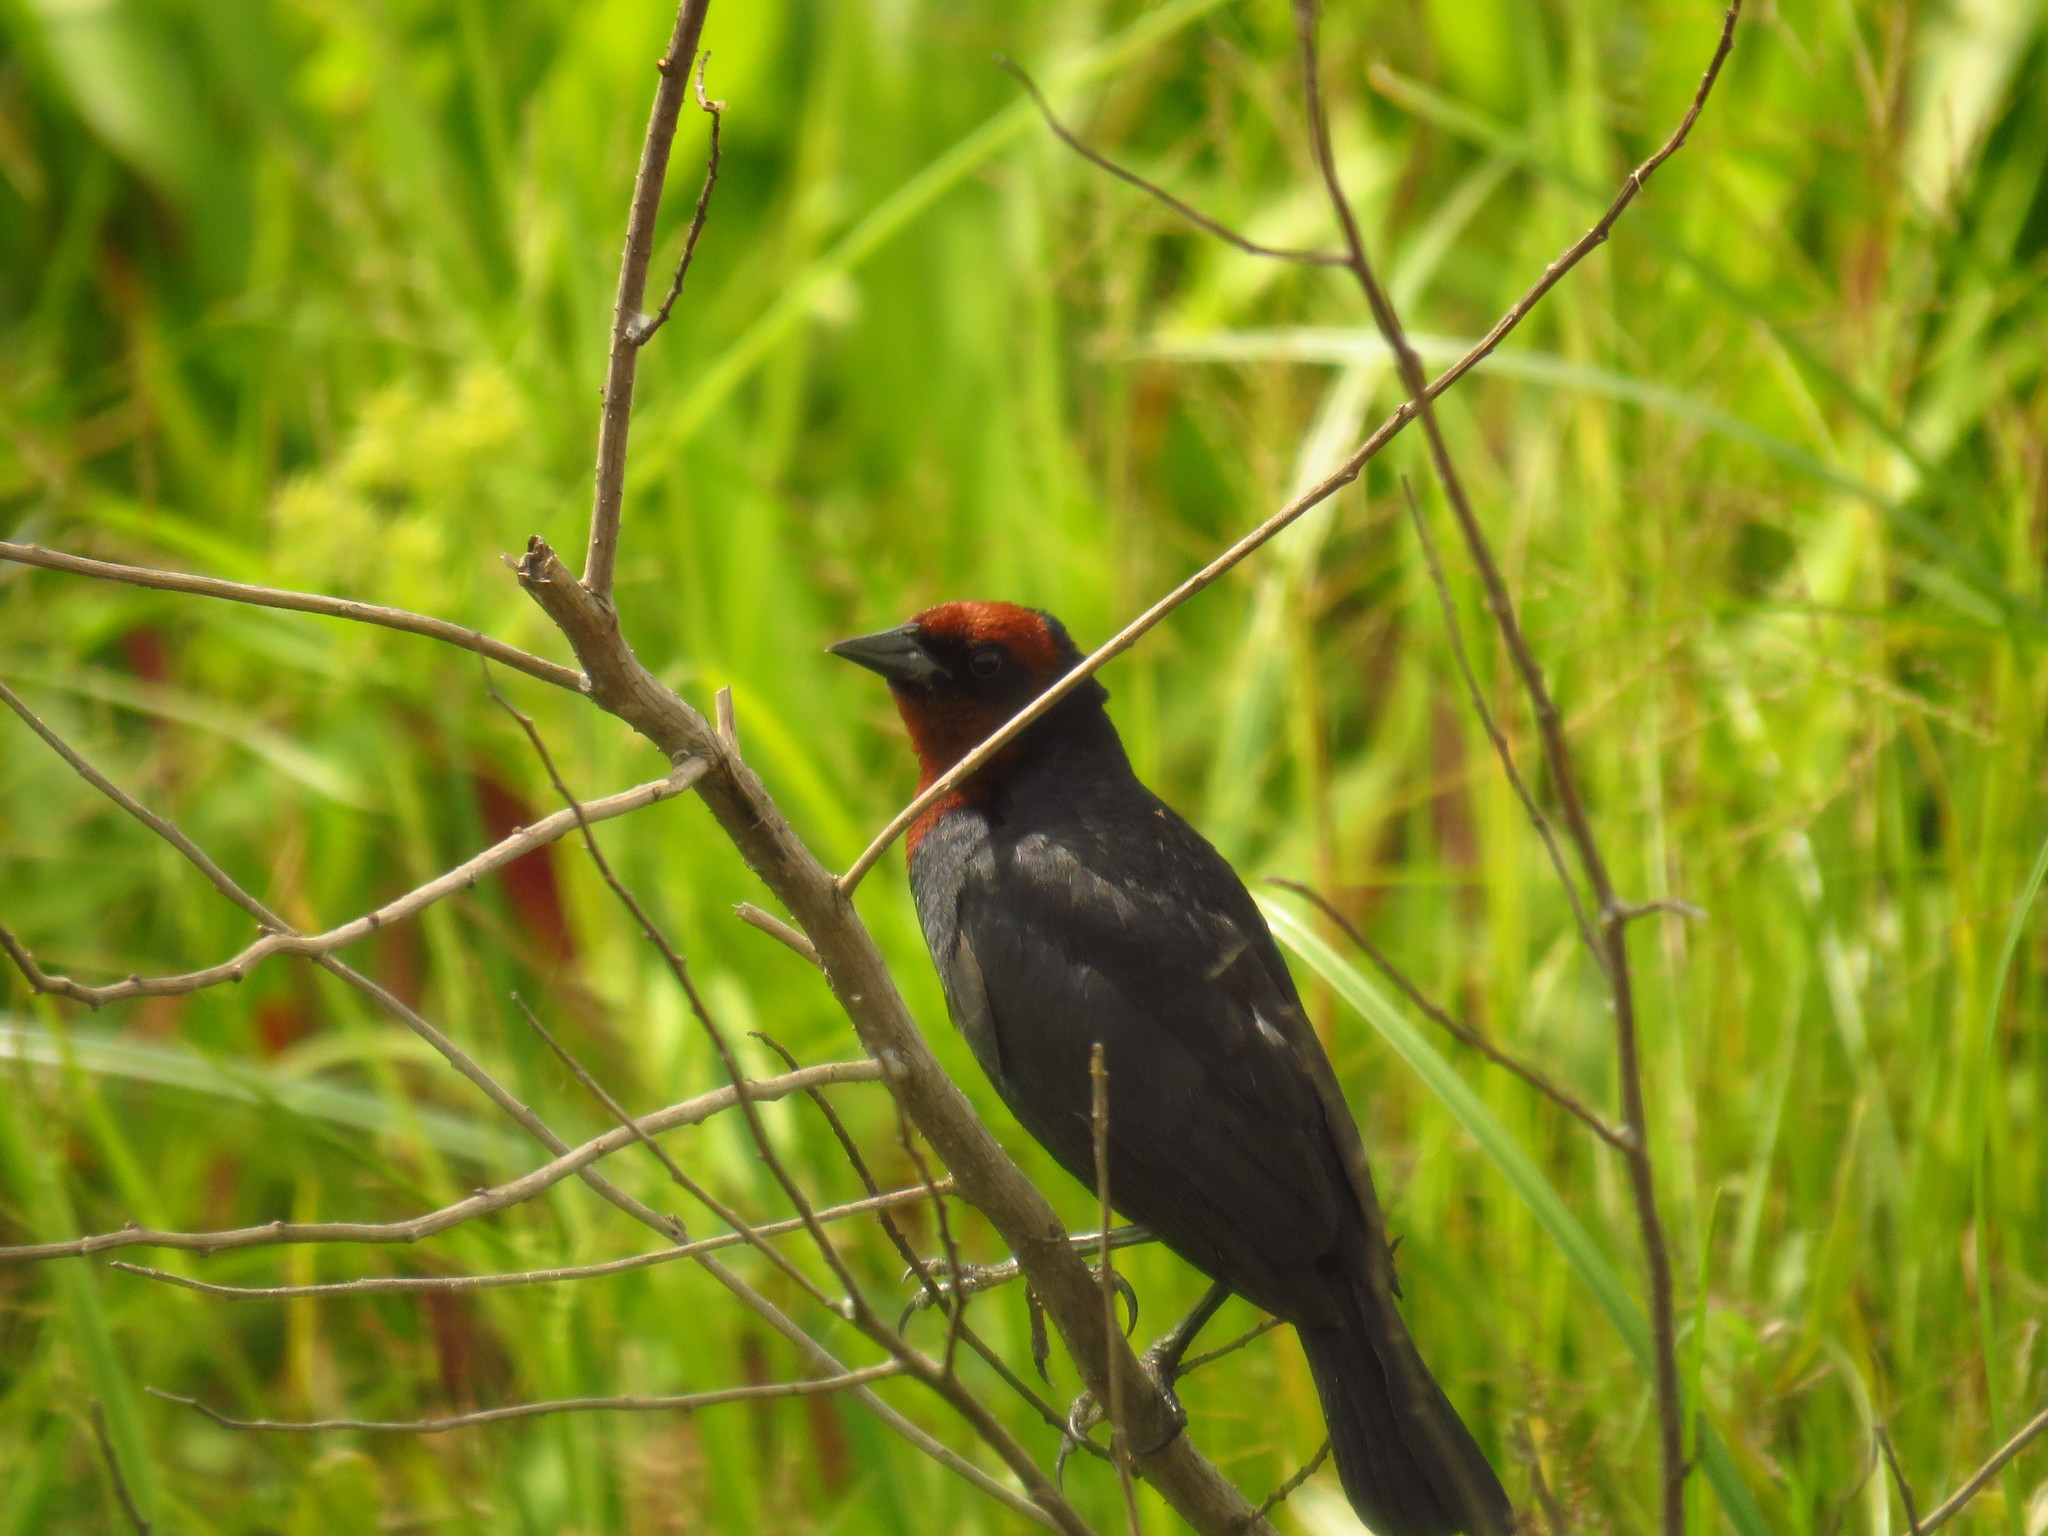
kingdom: Animalia
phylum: Chordata
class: Aves
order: Passeriformes
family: Icteridae
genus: Chrysomus
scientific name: Chrysomus ruficapillus
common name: Chestnut-capped blackbird
